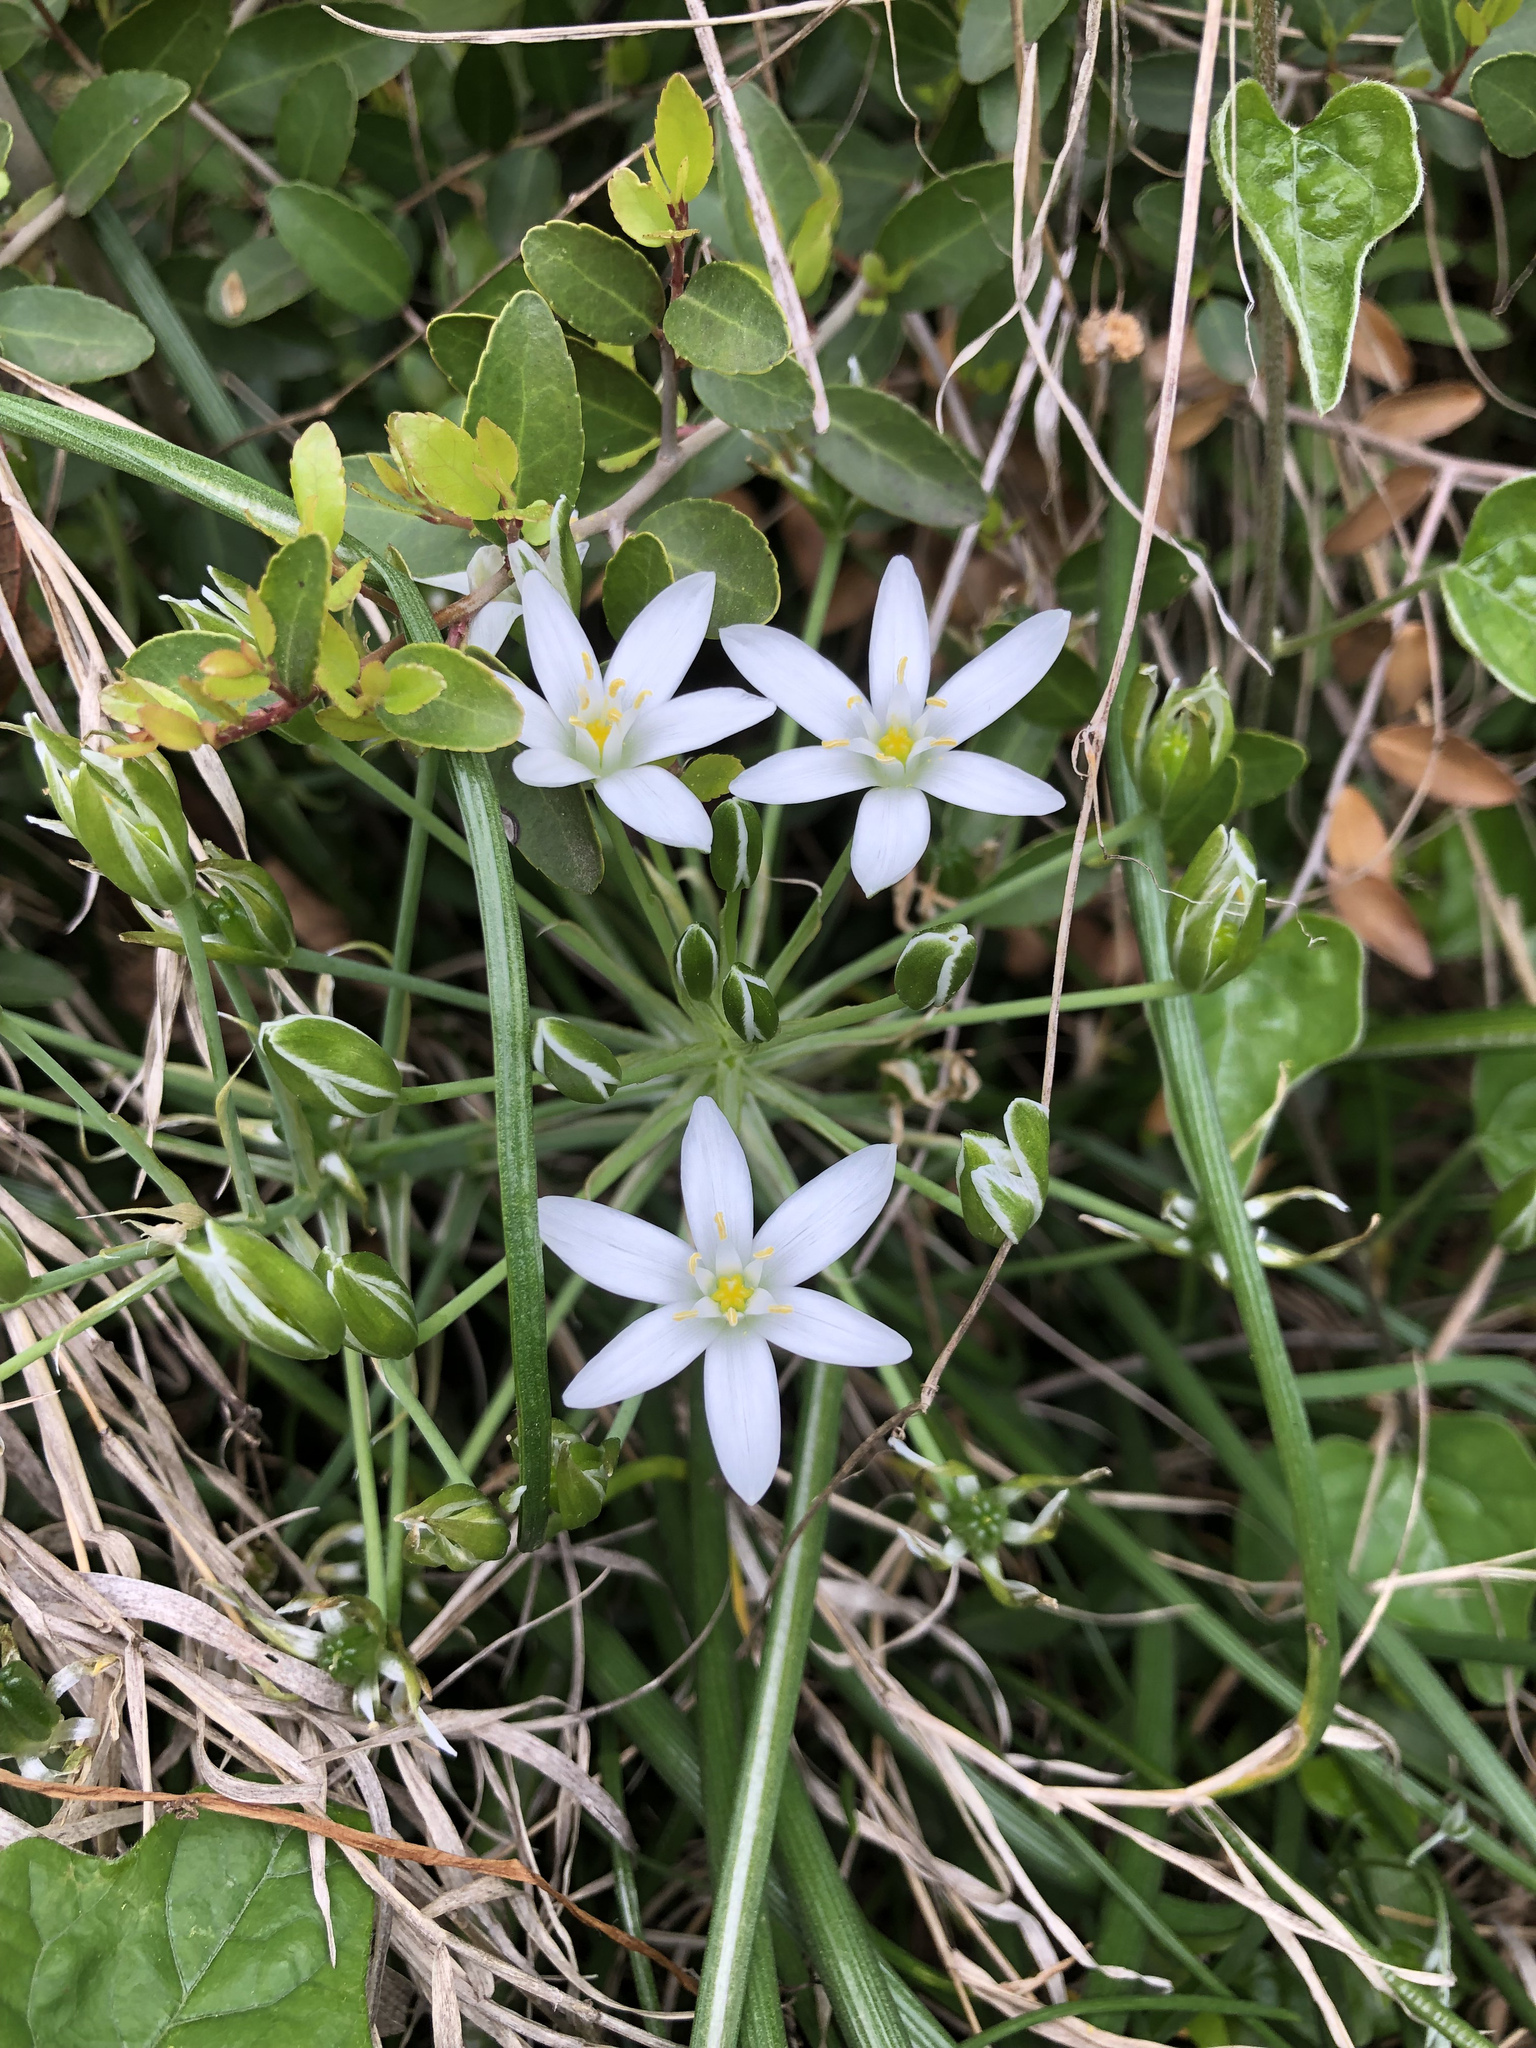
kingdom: Plantae
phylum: Tracheophyta
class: Liliopsida
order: Asparagales
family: Asparagaceae
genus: Ornithogalum
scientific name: Ornithogalum umbellatum
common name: Garden star-of-bethlehem
